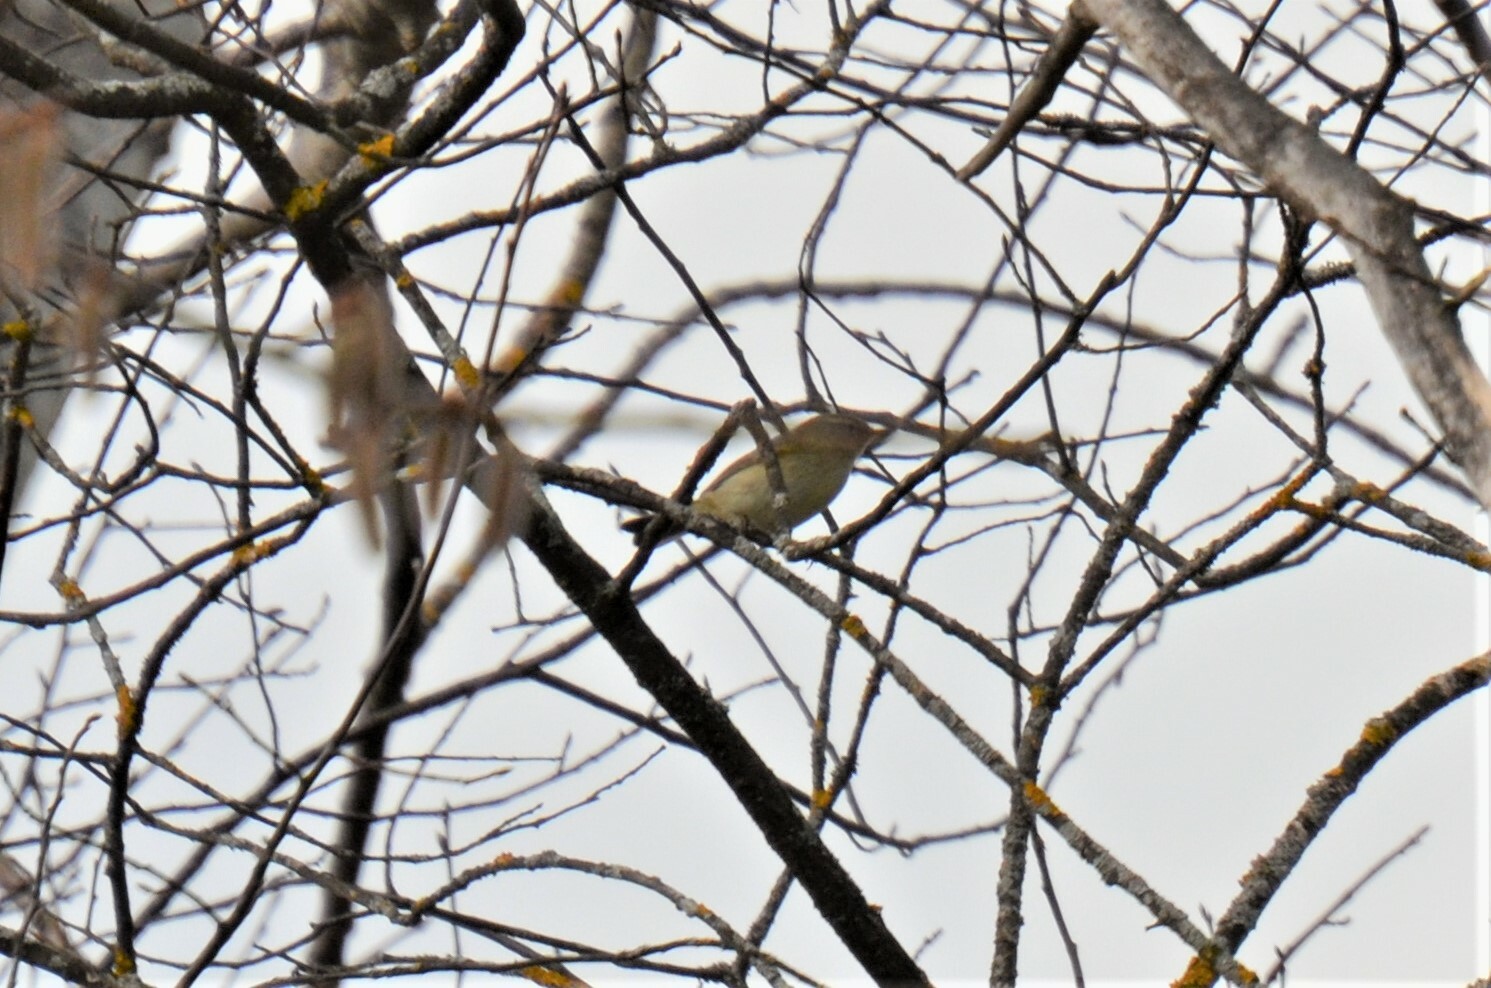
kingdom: Animalia
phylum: Chordata
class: Aves
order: Passeriformes
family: Phylloscopidae
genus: Phylloscopus
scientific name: Phylloscopus collybita
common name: Common chiffchaff
